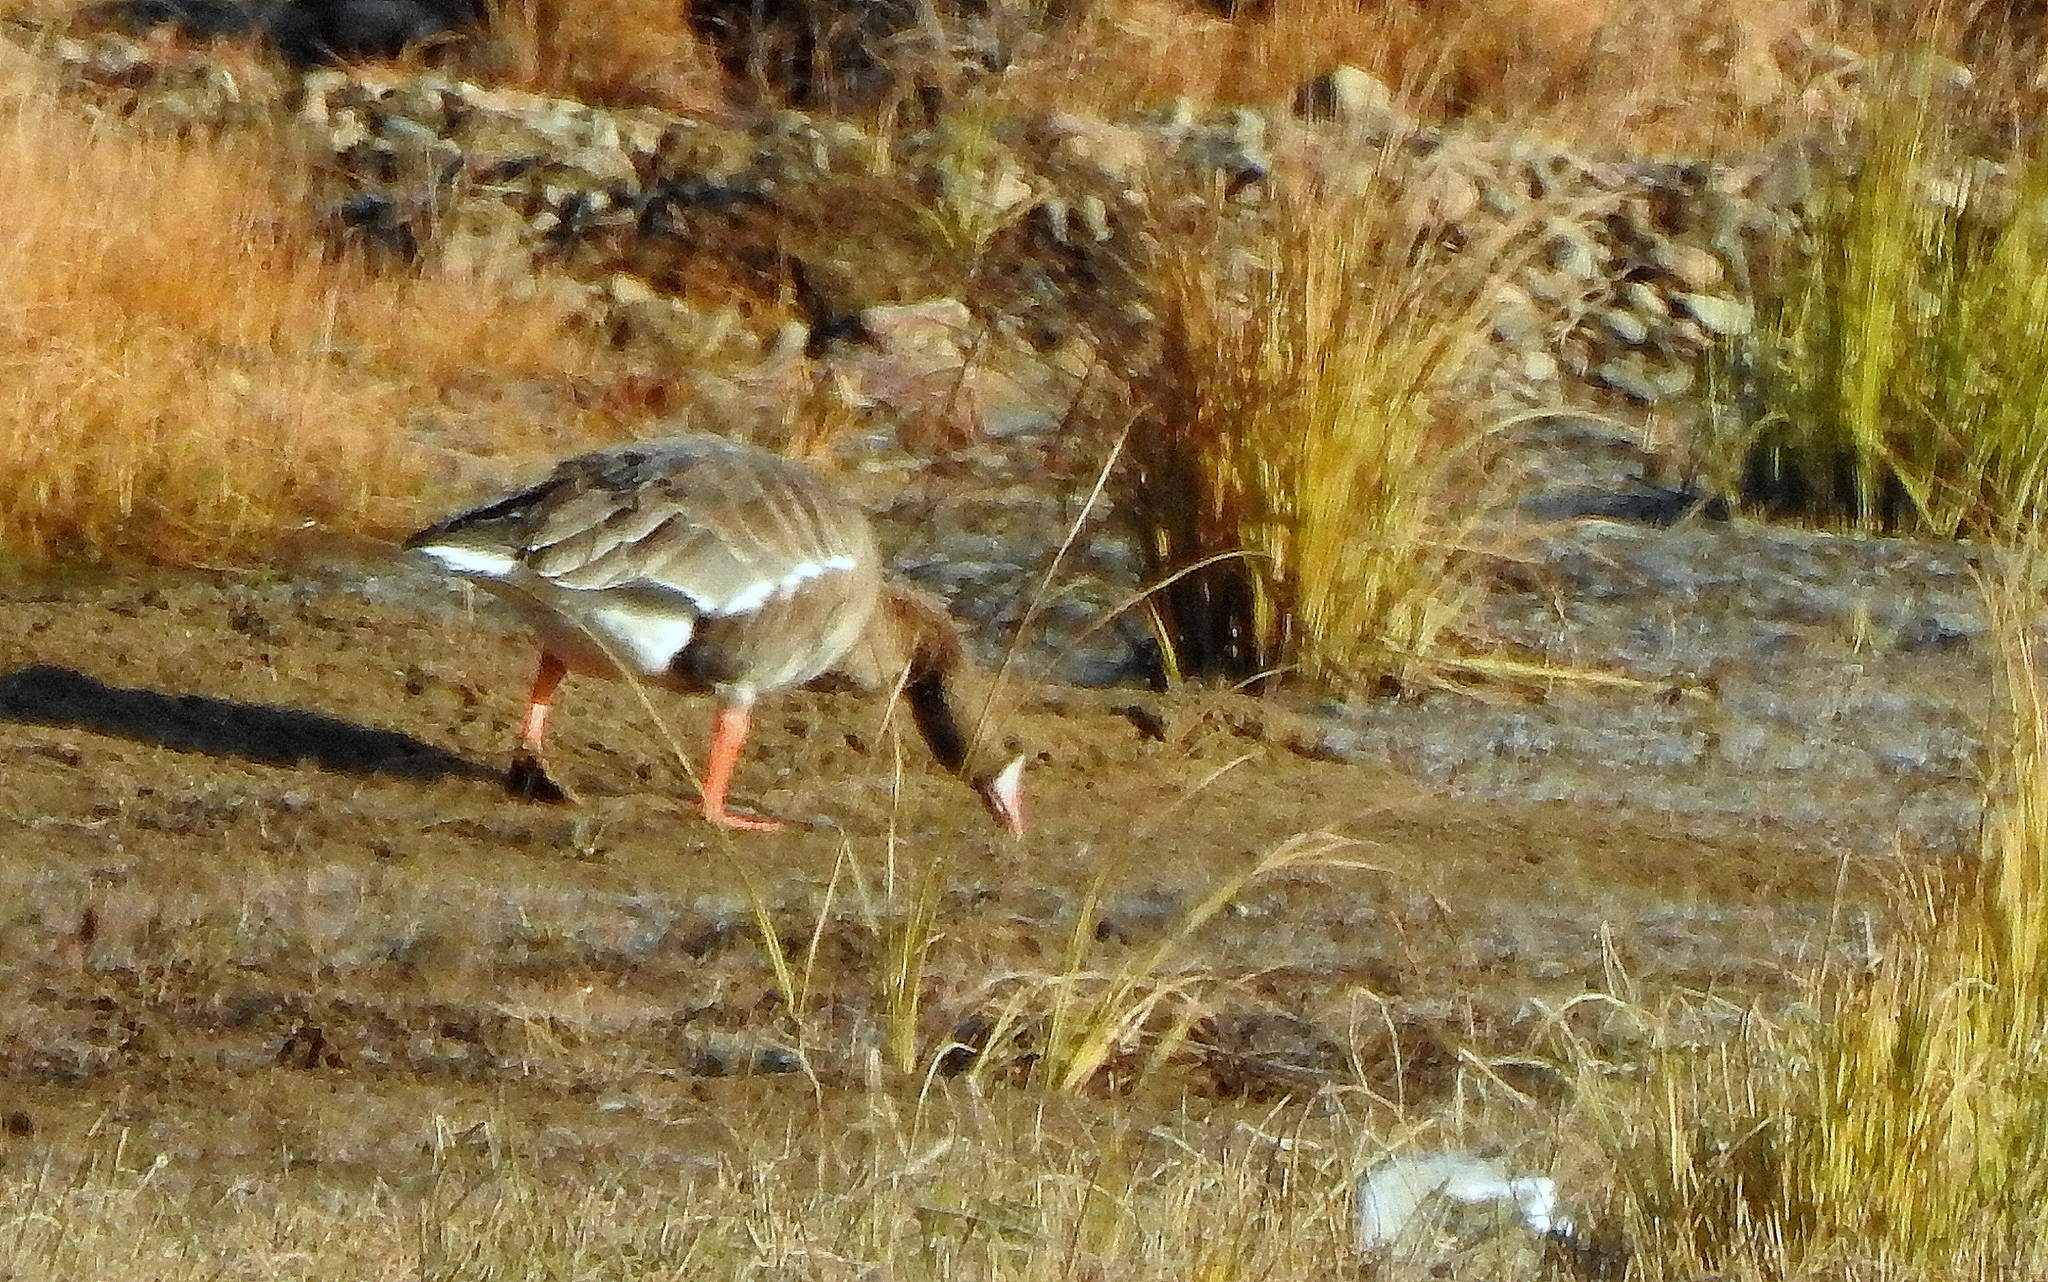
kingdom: Animalia
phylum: Chordata
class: Aves
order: Anseriformes
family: Anatidae
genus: Anser
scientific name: Anser albifrons
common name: Greater white-fronted goose
